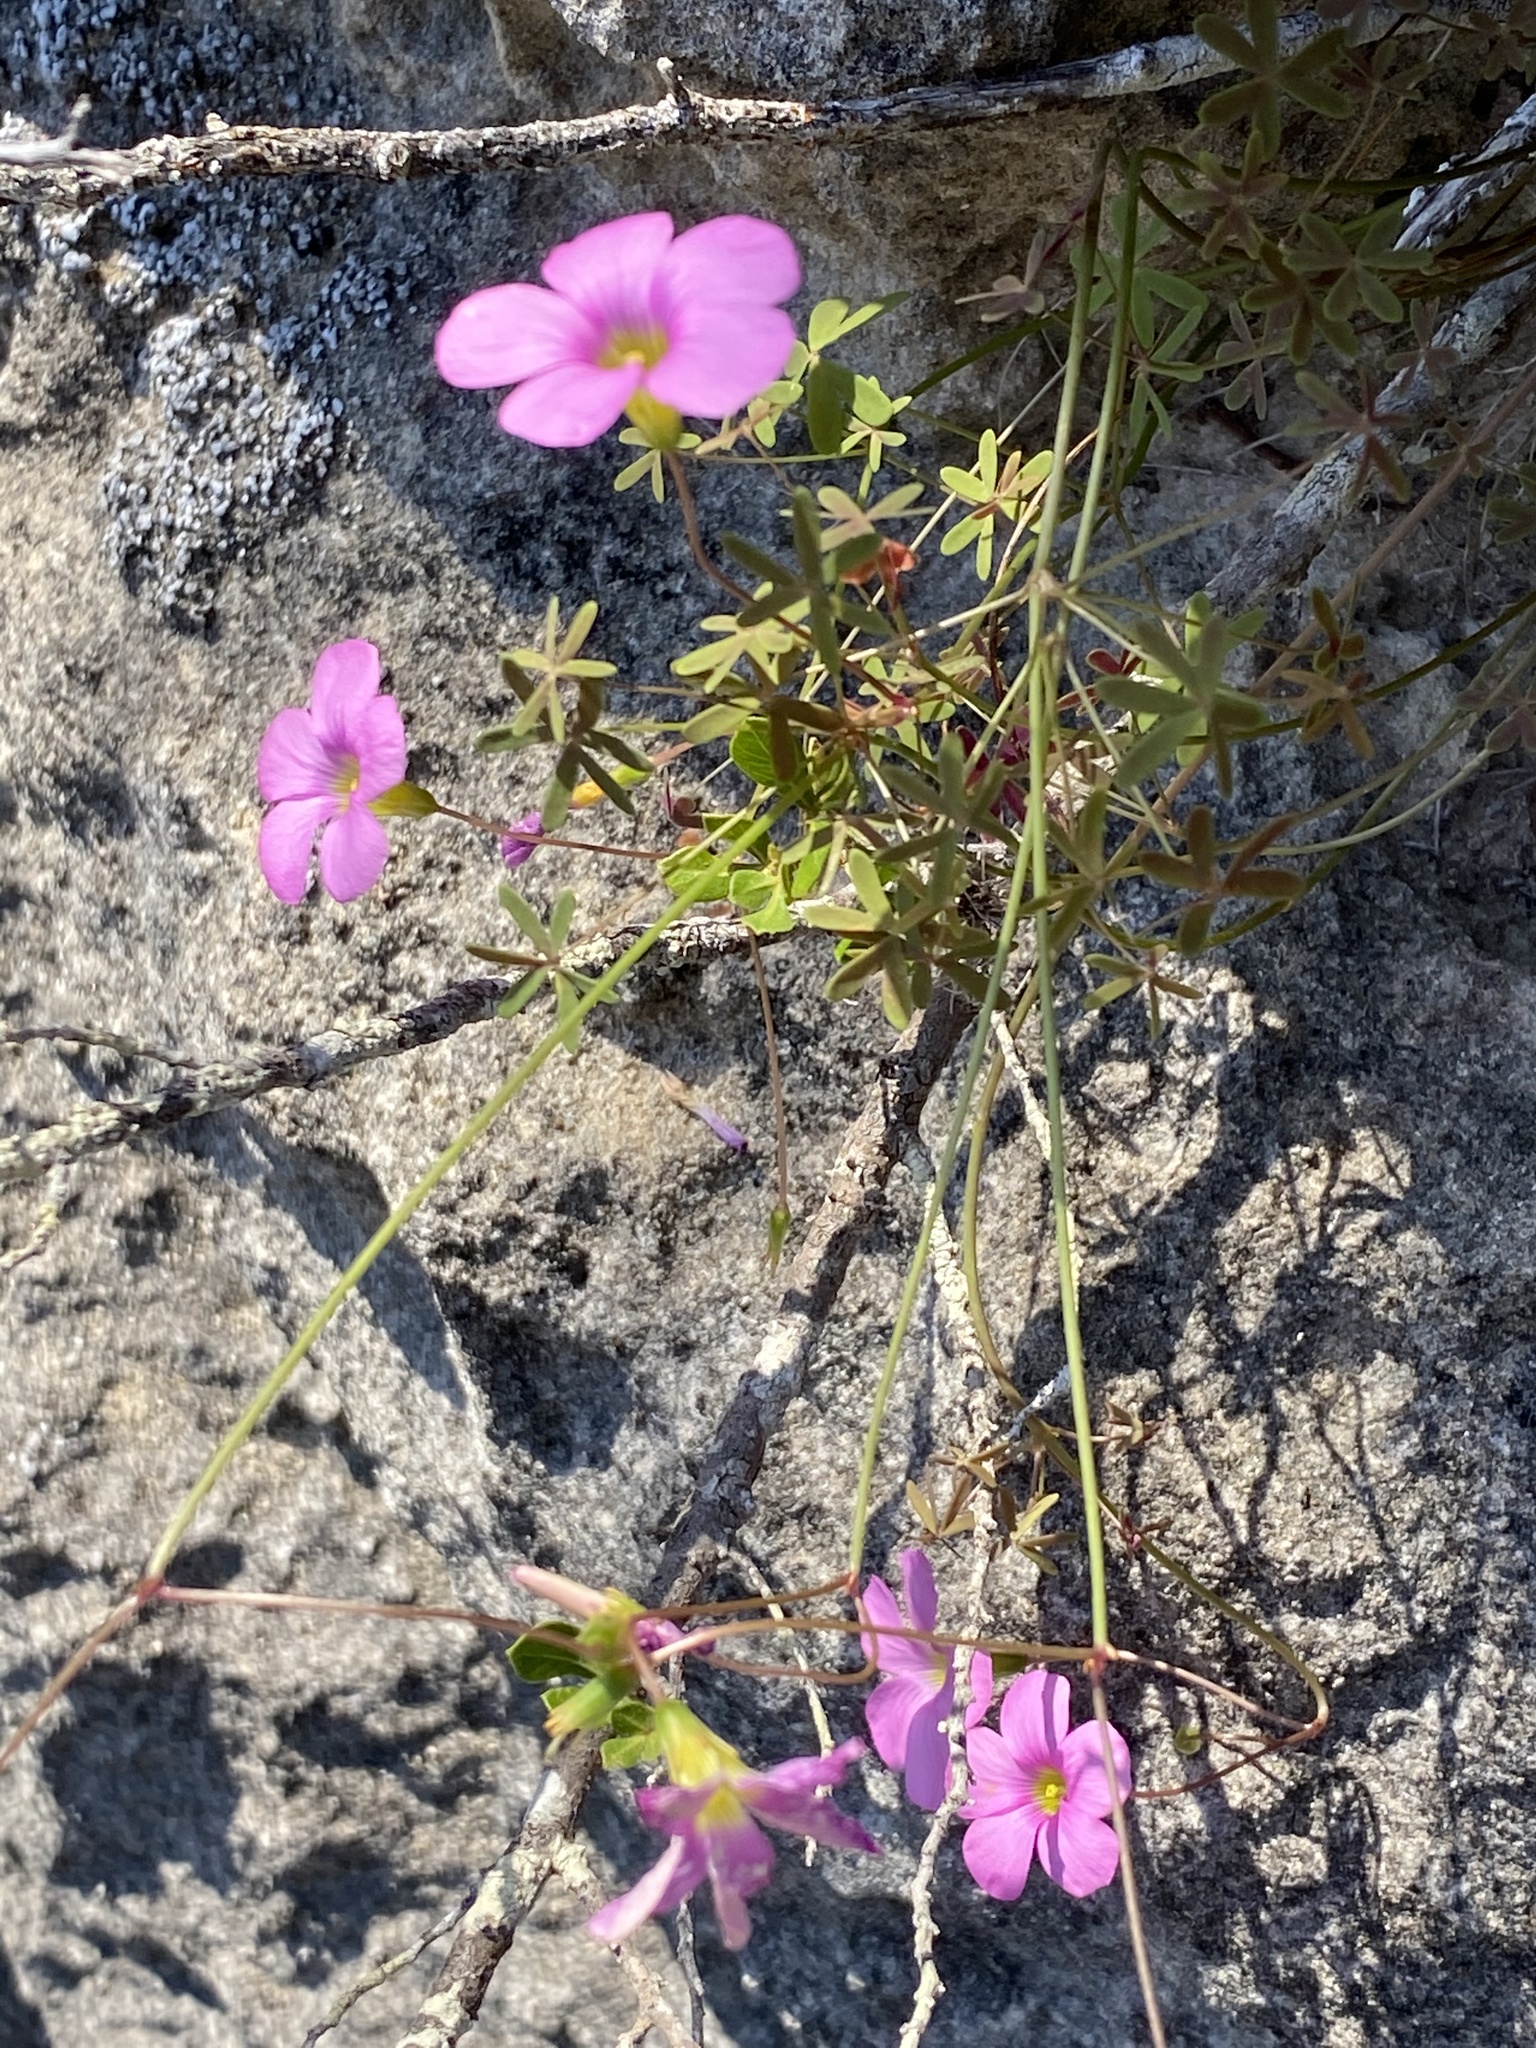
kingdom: Plantae
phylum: Tracheophyta
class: Magnoliopsida
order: Oxalidales
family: Oxalidaceae
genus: Oxalis
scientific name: Oxalis stellata
